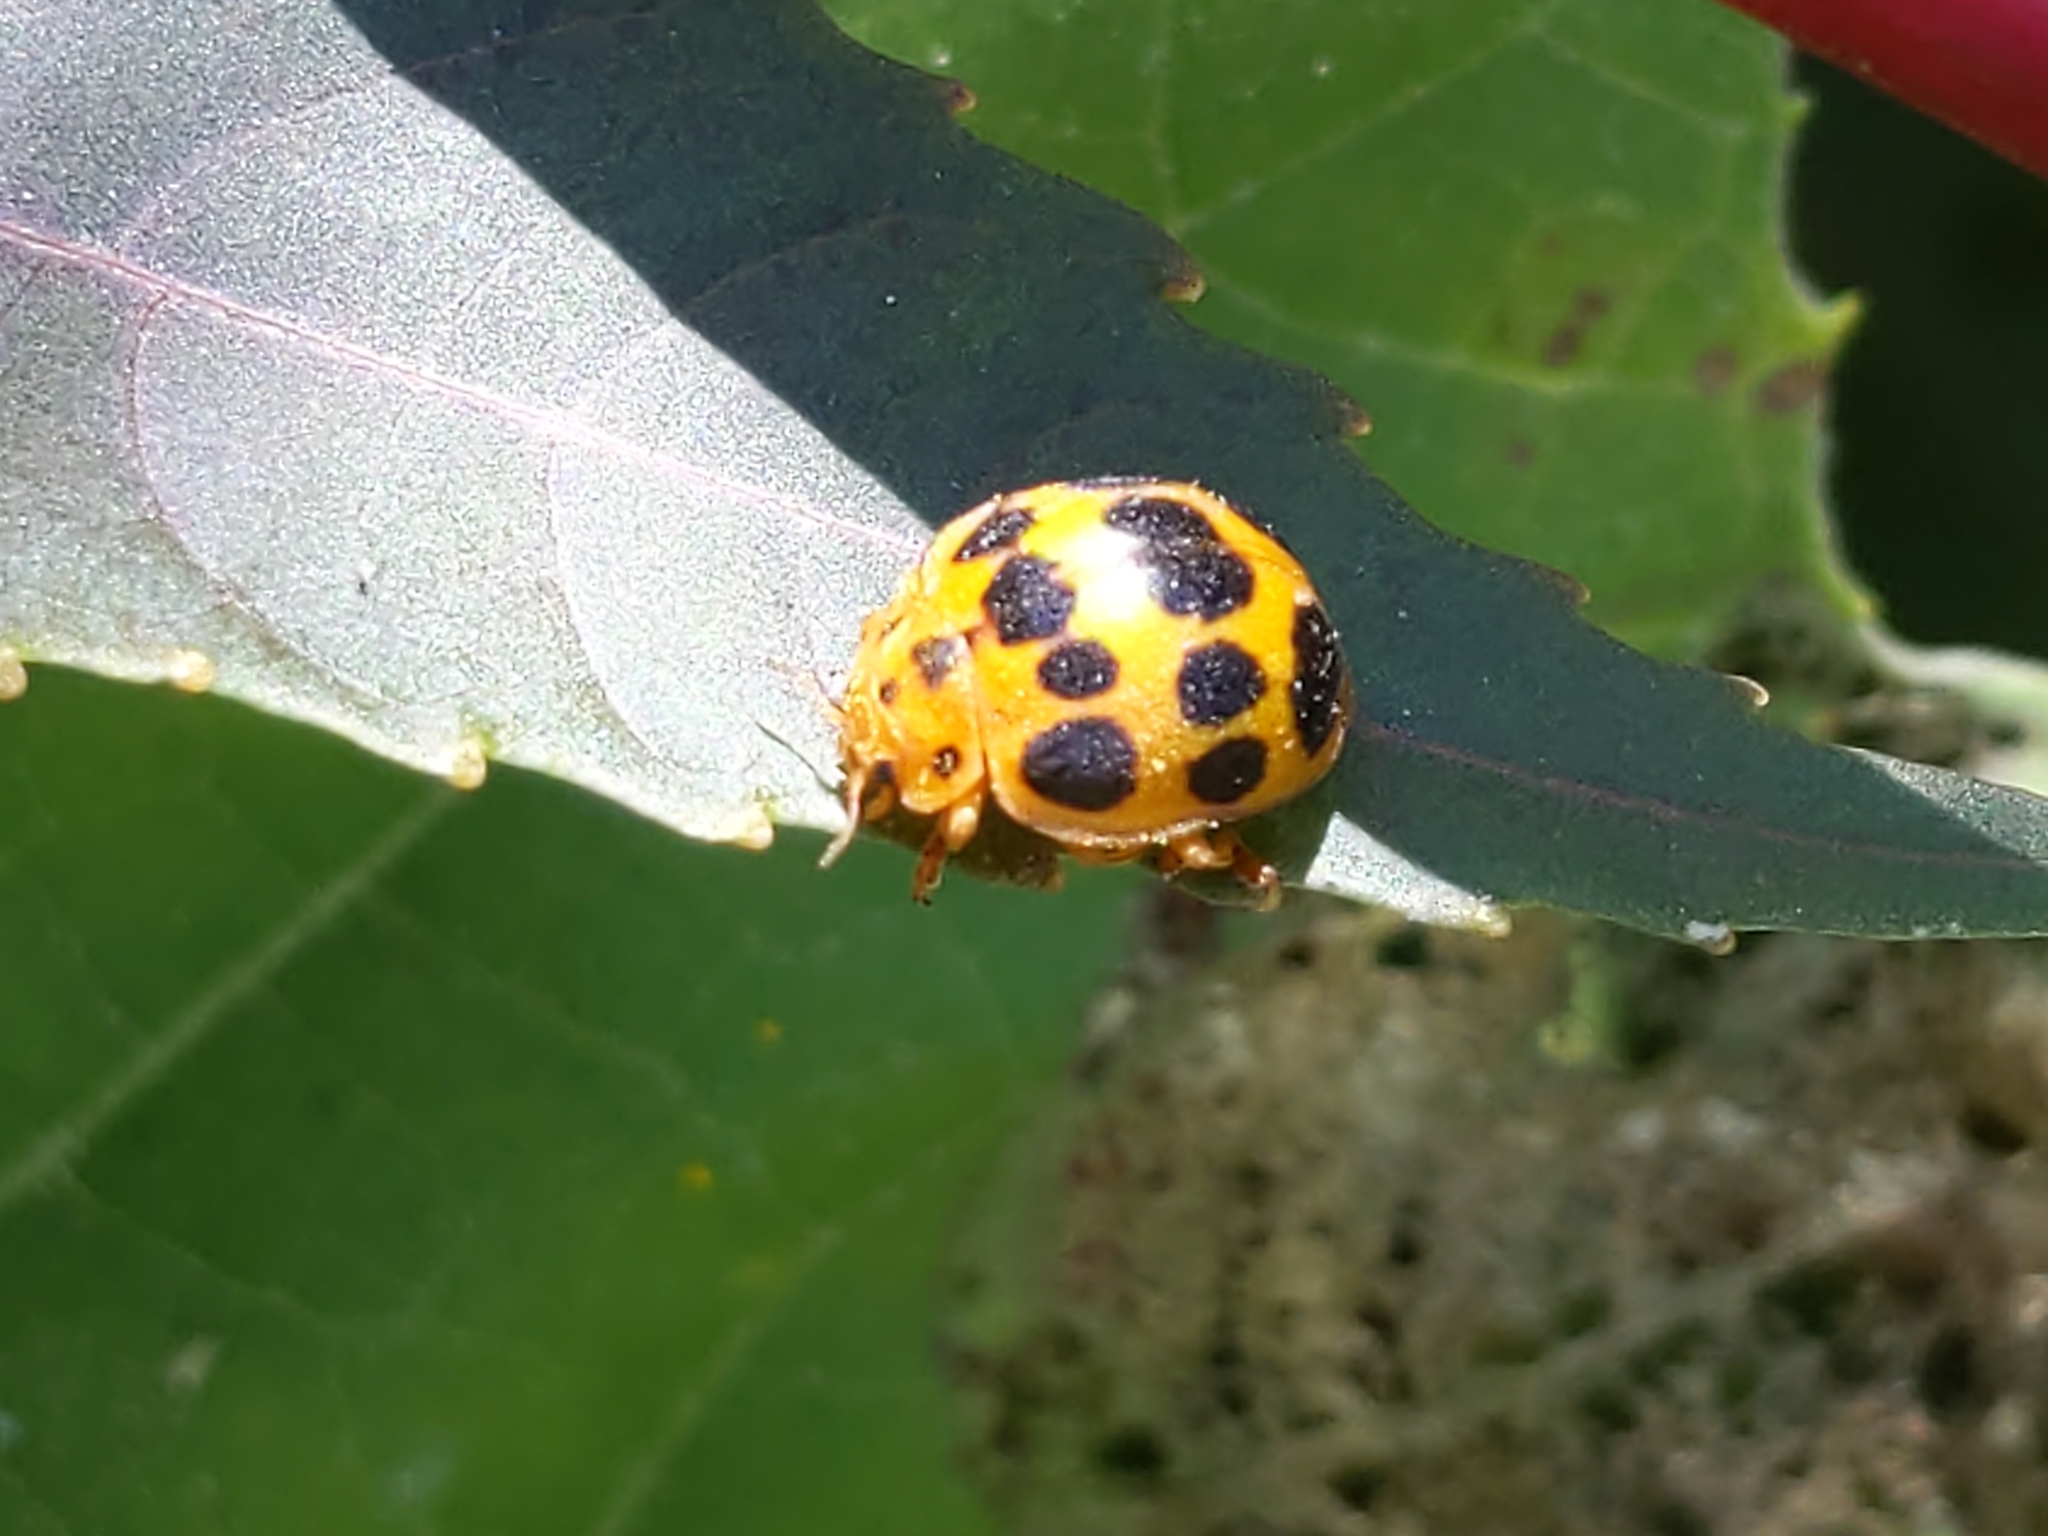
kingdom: Animalia
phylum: Arthropoda
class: Insecta
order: Coleoptera
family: Coccinellidae
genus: Epilachna
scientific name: Epilachna borealis
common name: Squash beetle
